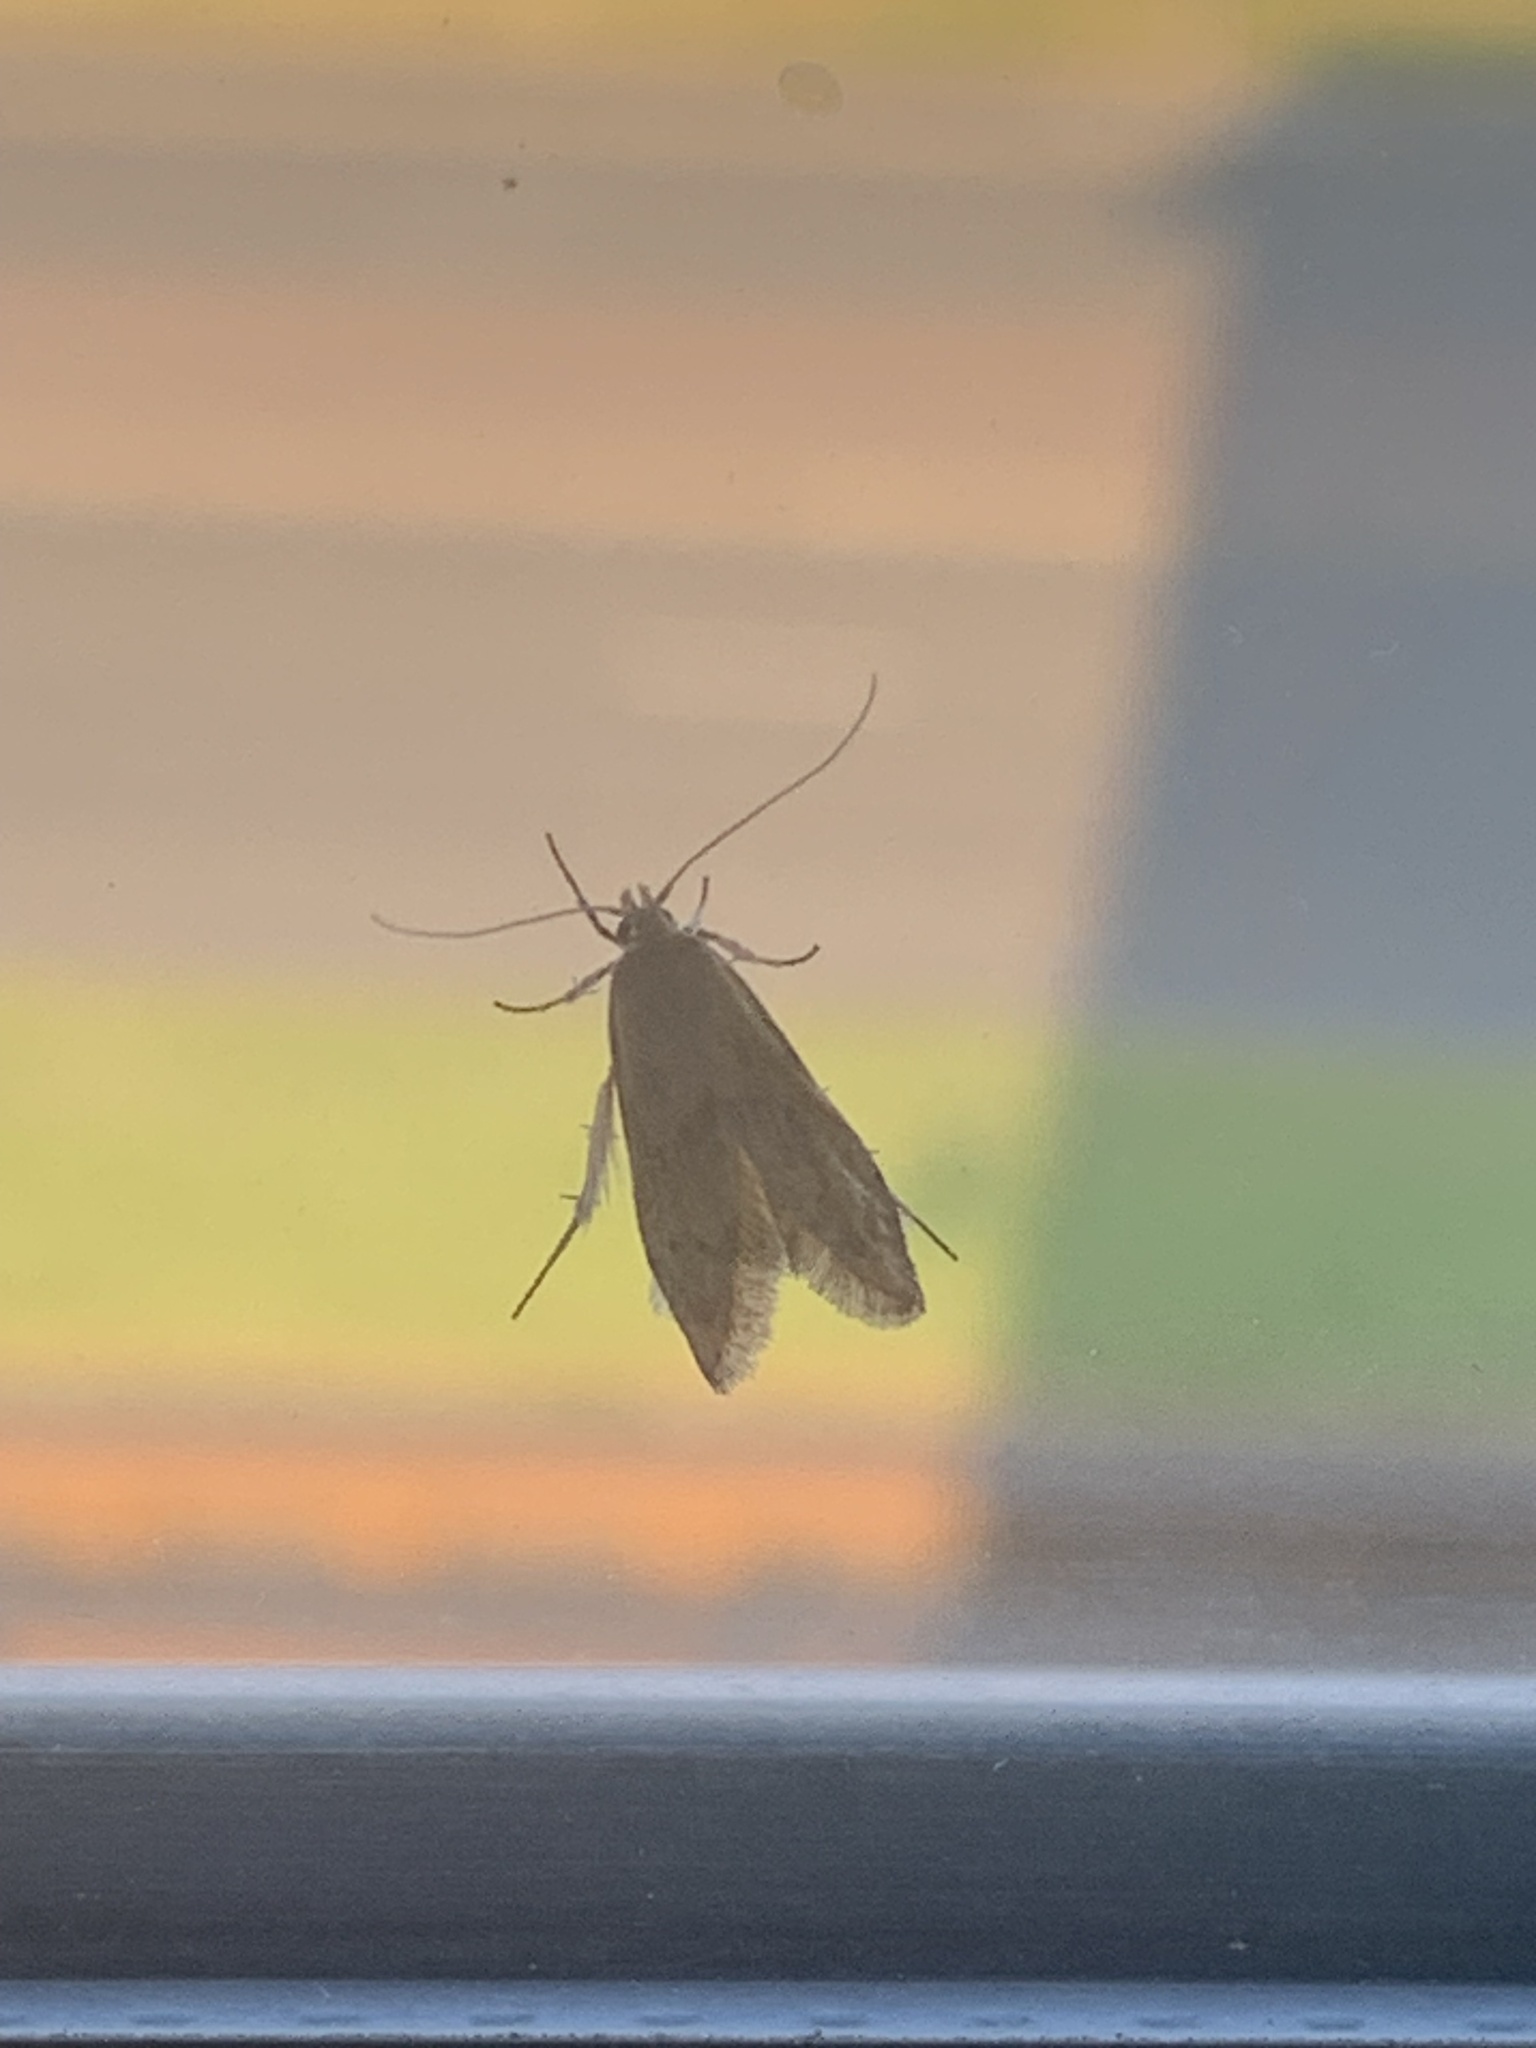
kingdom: Animalia
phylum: Arthropoda
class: Insecta
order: Lepidoptera
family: Blastobasidae
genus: Blastobasis
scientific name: Blastobasis lacticolella
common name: London dowd
